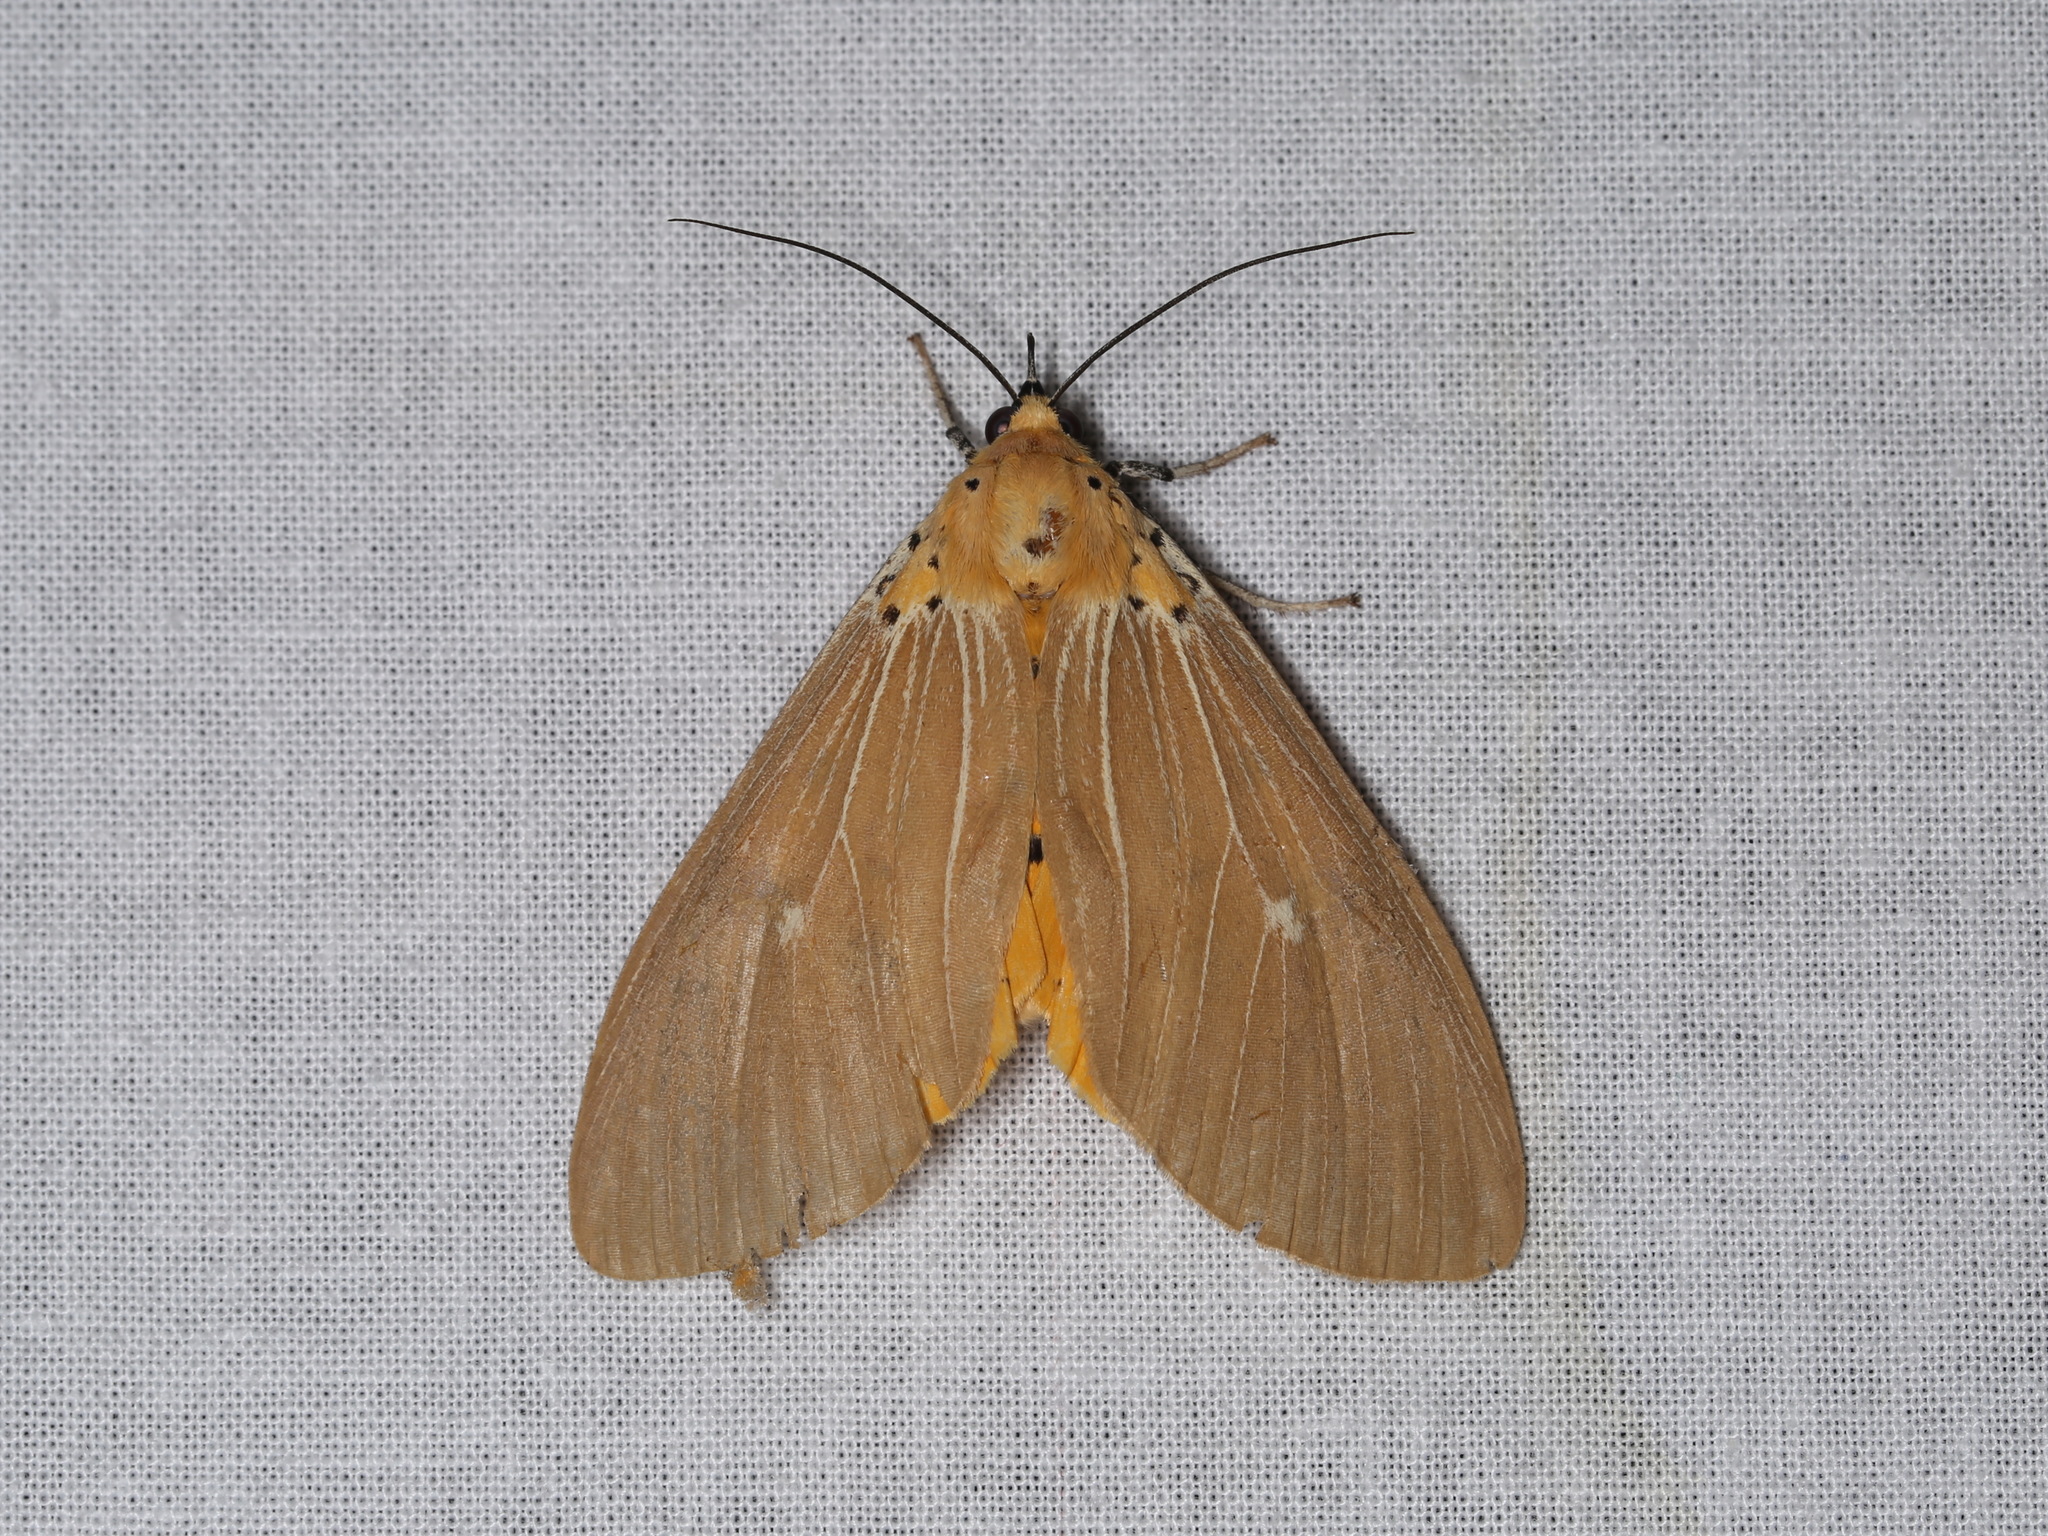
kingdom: Animalia
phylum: Arthropoda
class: Insecta
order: Lepidoptera
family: Erebidae
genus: Asota
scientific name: Asota caricae
